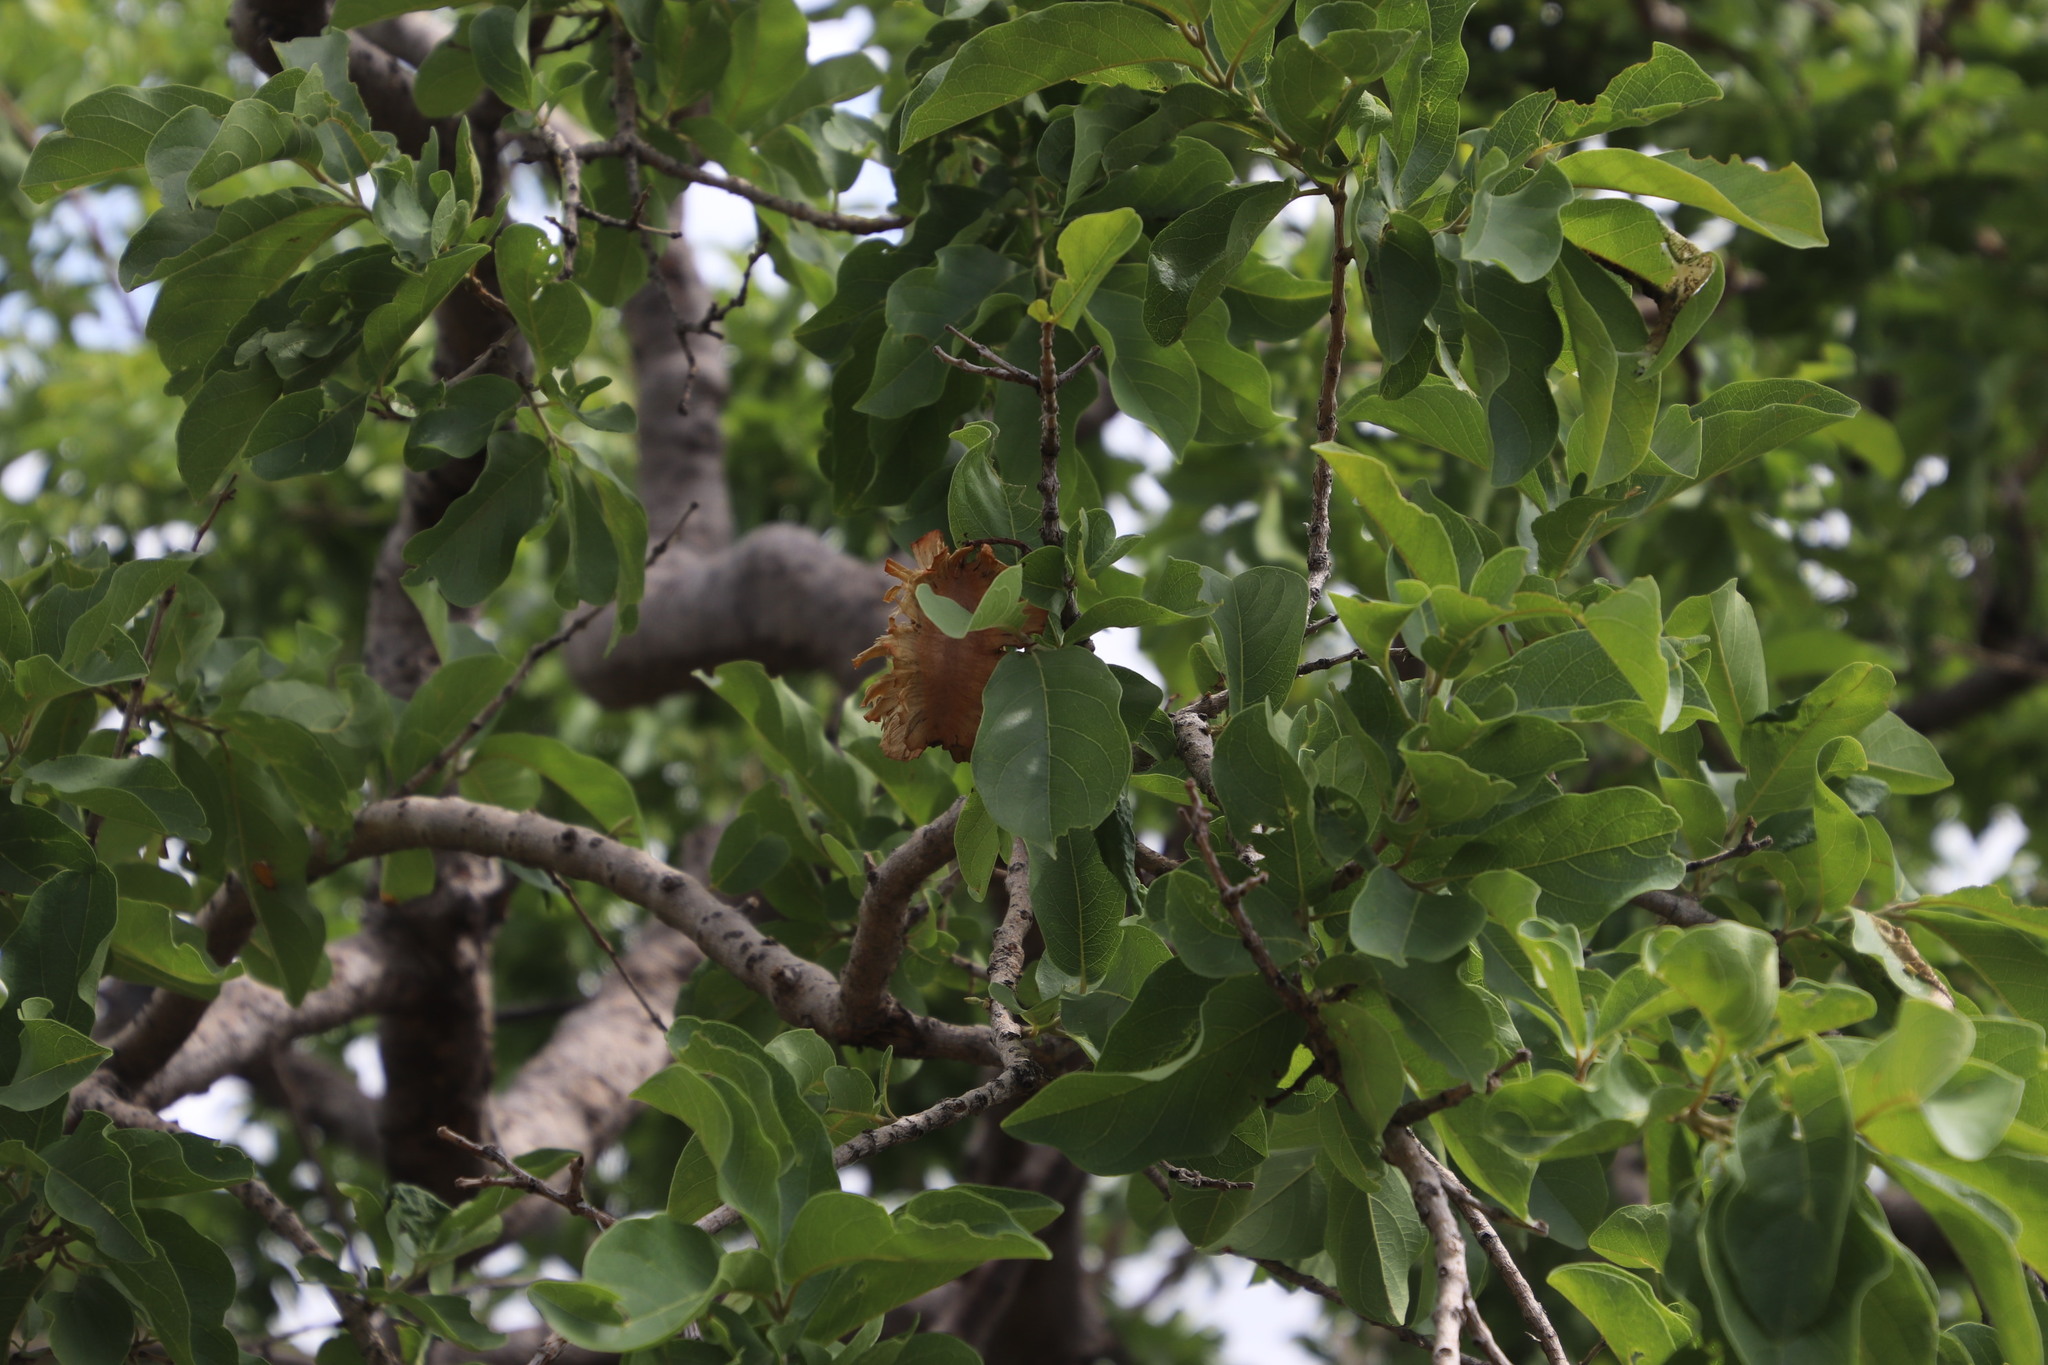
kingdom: Plantae
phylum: Tracheophyta
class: Magnoliopsida
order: Myrtales
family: Combretaceae
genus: Combretum
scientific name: Combretum zeyheri
